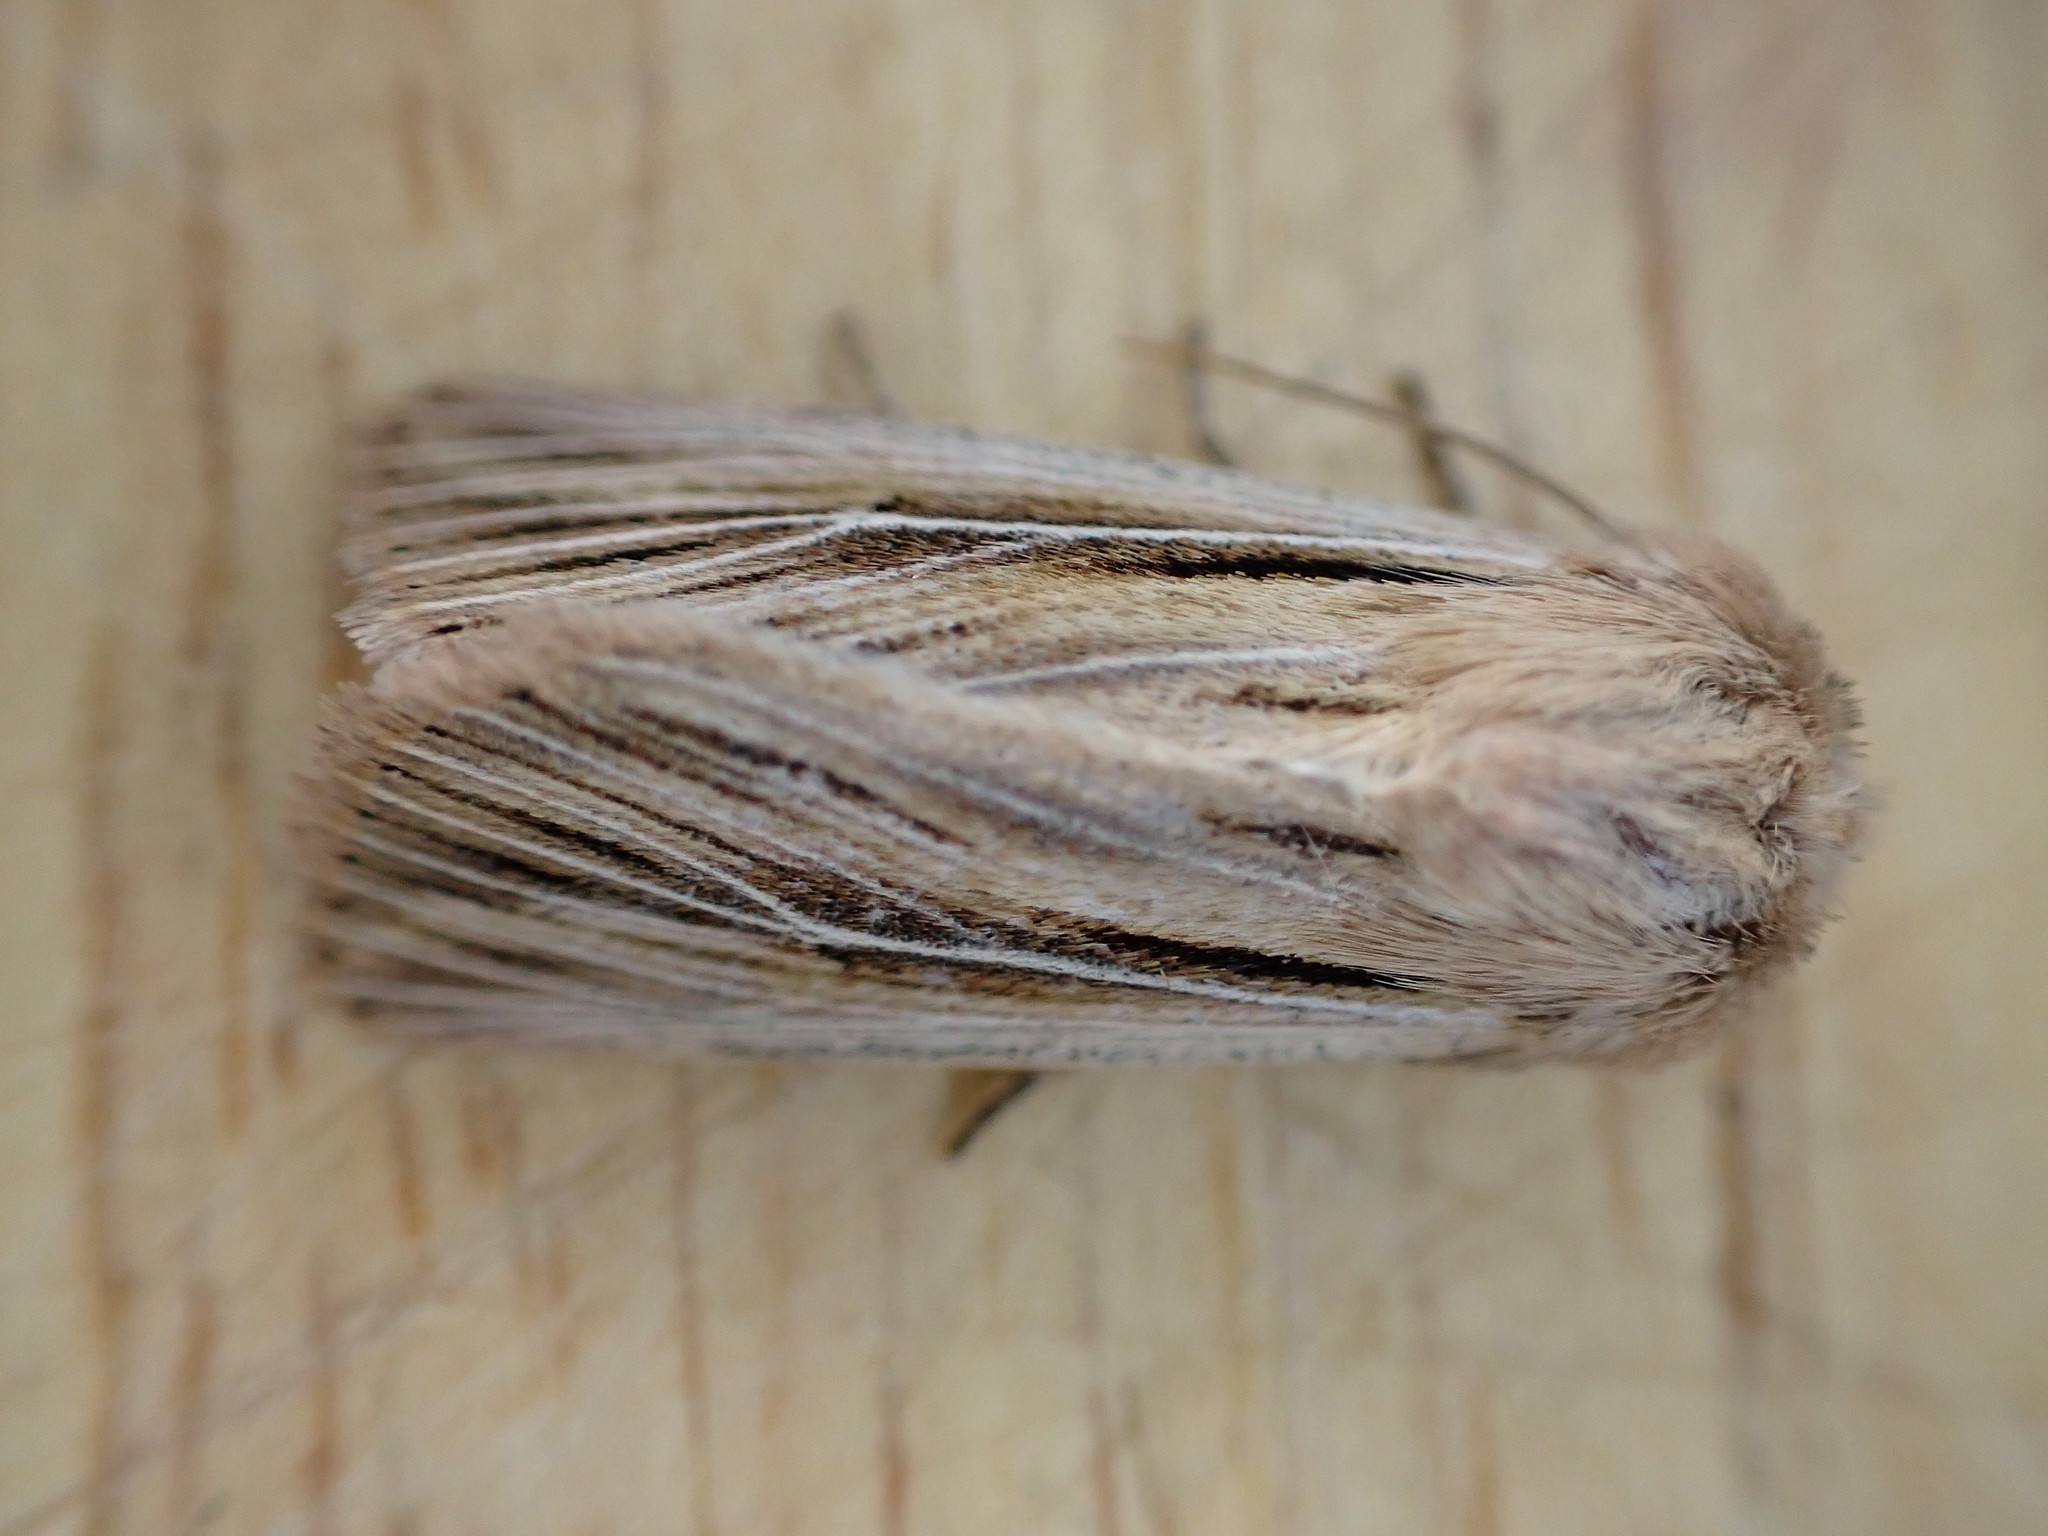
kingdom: Animalia
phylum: Arthropoda
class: Insecta
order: Lepidoptera
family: Noctuidae
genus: Leucania
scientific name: Leucania comma
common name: Shoulder-striped wainscot
